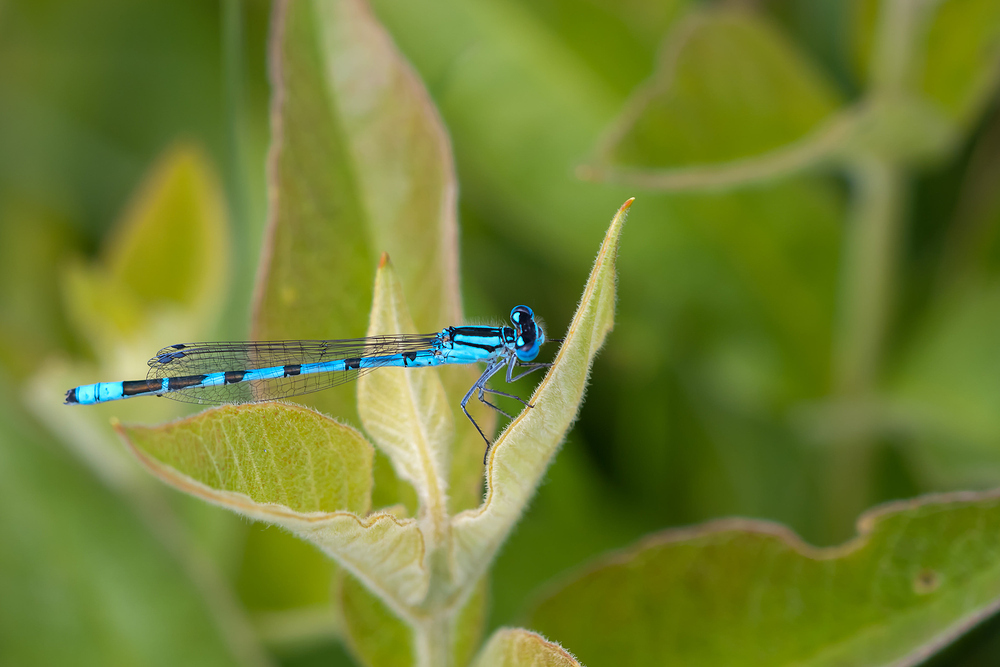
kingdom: Animalia
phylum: Arthropoda
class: Insecta
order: Odonata
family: Coenagrionidae
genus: Enallagma
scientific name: Enallagma cyathigerum
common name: Common blue damselfly
